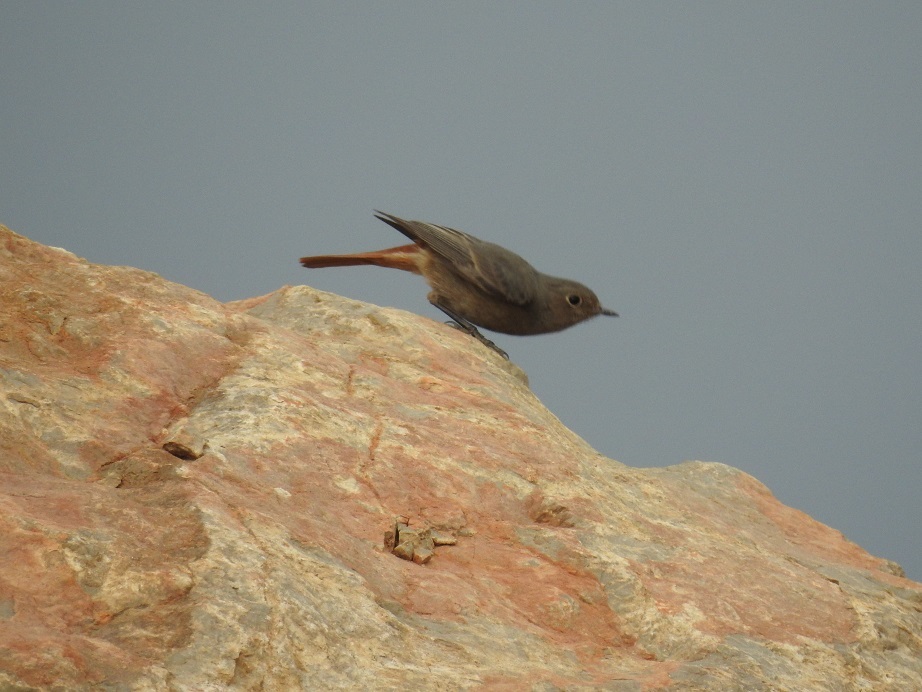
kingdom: Animalia
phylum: Chordata
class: Aves
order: Passeriformes
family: Muscicapidae
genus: Phoenicurus
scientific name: Phoenicurus ochruros
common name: Black redstart
